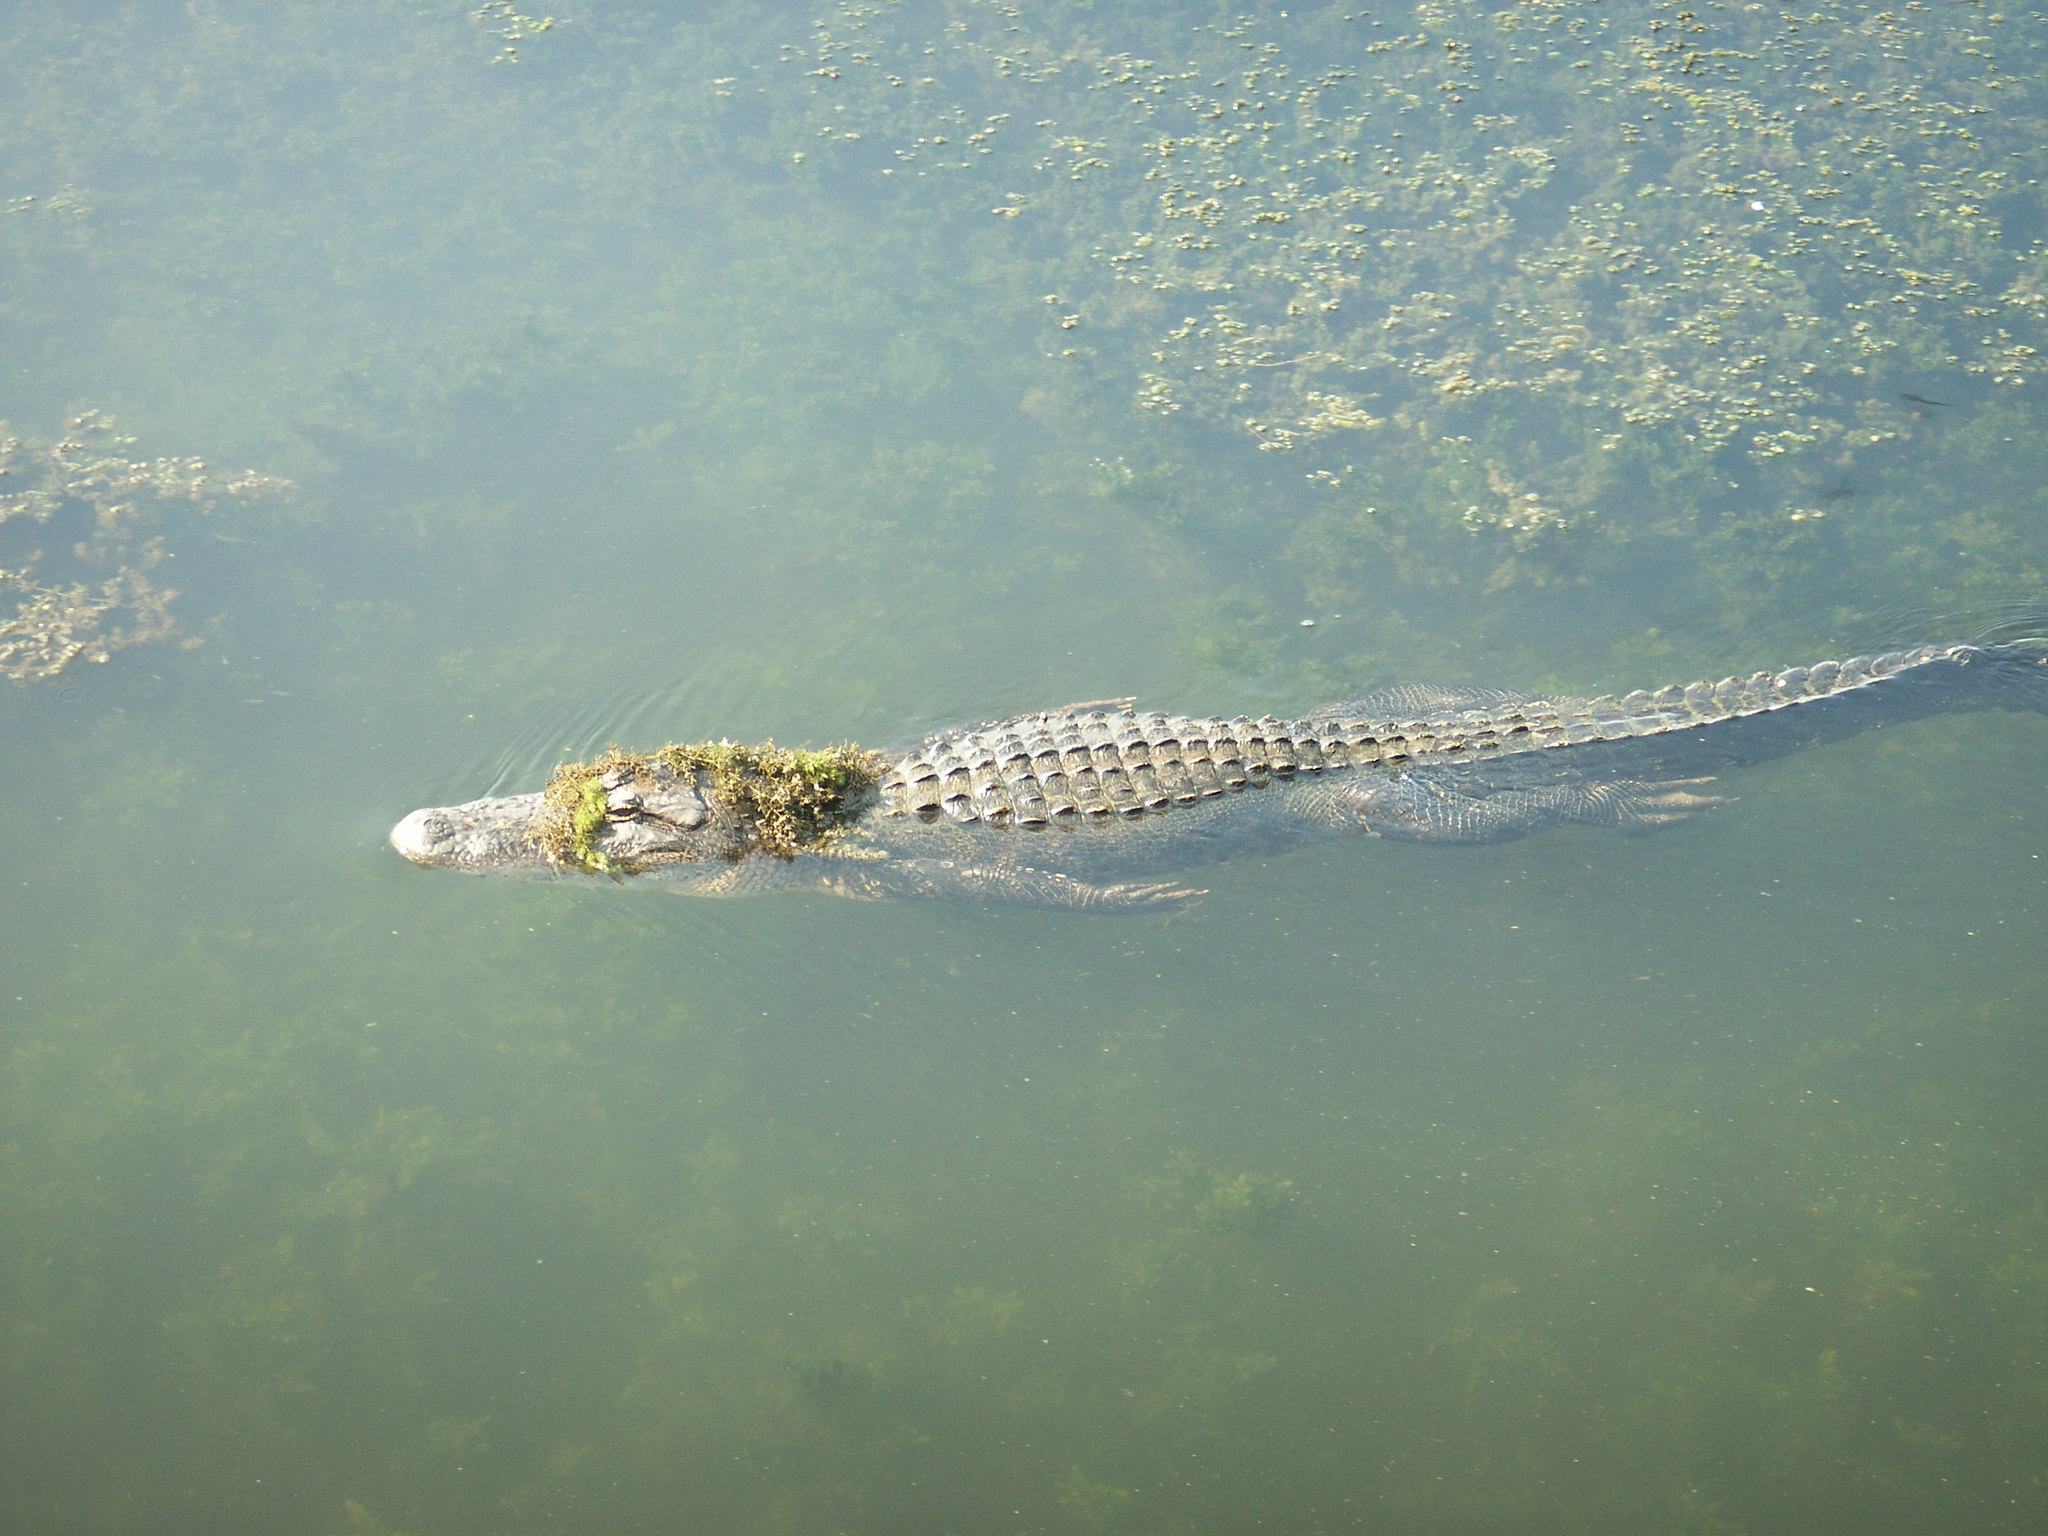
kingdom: Animalia
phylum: Chordata
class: Crocodylia
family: Alligatoridae
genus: Alligator
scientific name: Alligator mississippiensis
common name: American alligator
